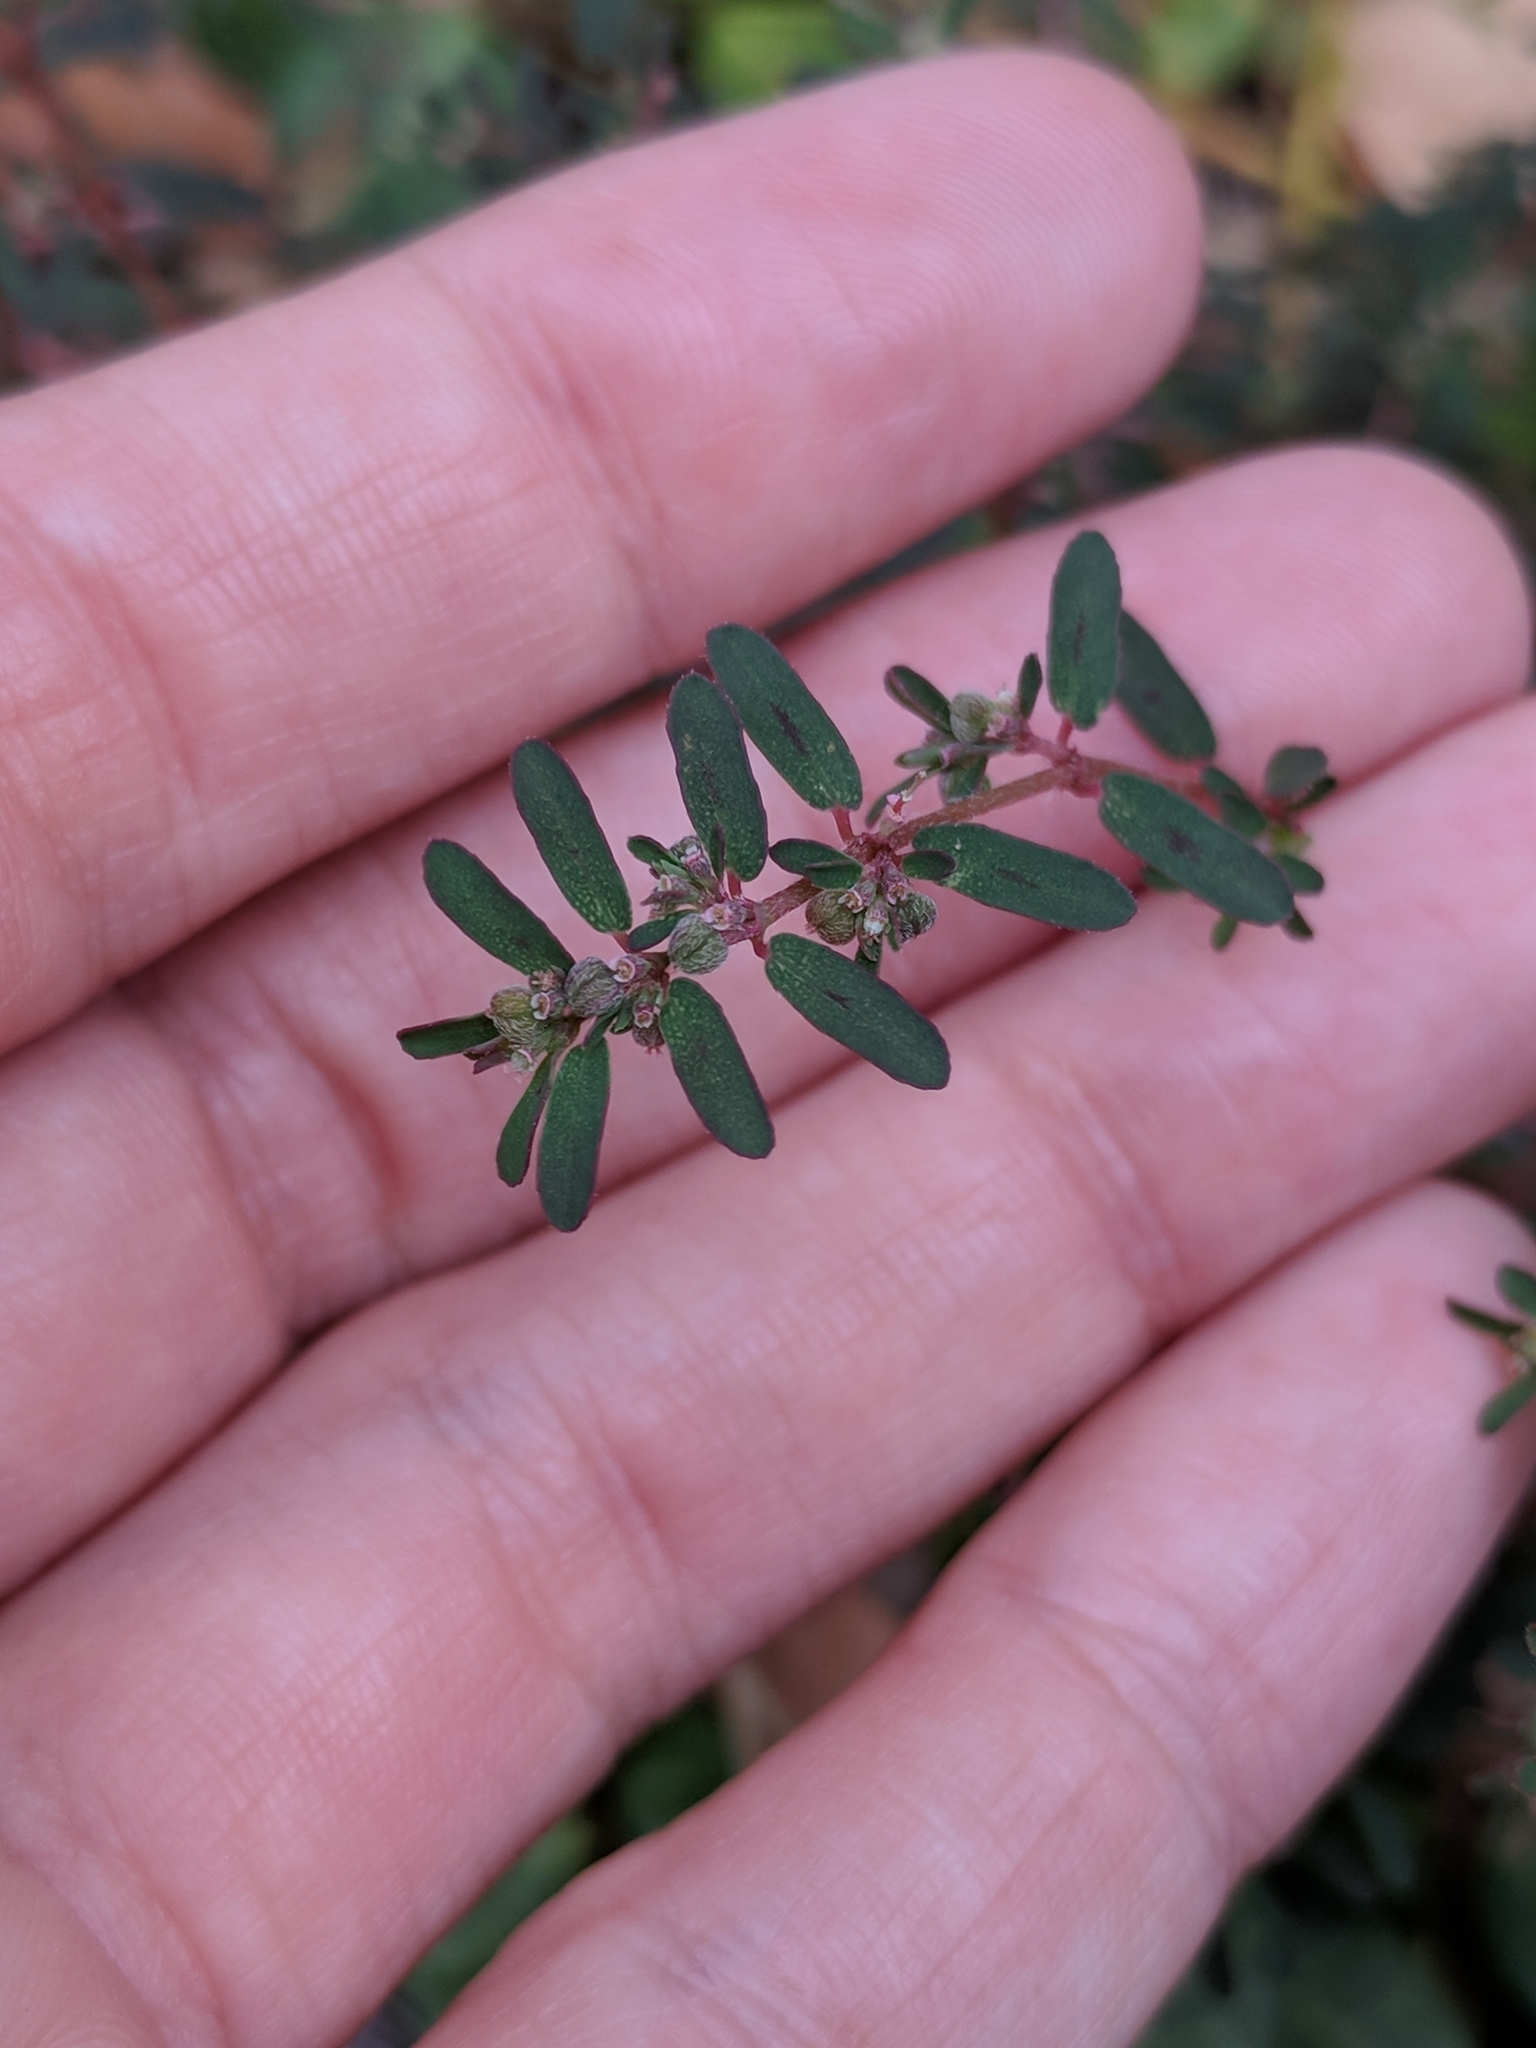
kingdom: Plantae
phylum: Tracheophyta
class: Magnoliopsida
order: Malpighiales
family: Euphorbiaceae
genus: Euphorbia
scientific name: Euphorbia maculata
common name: Spotted spurge
